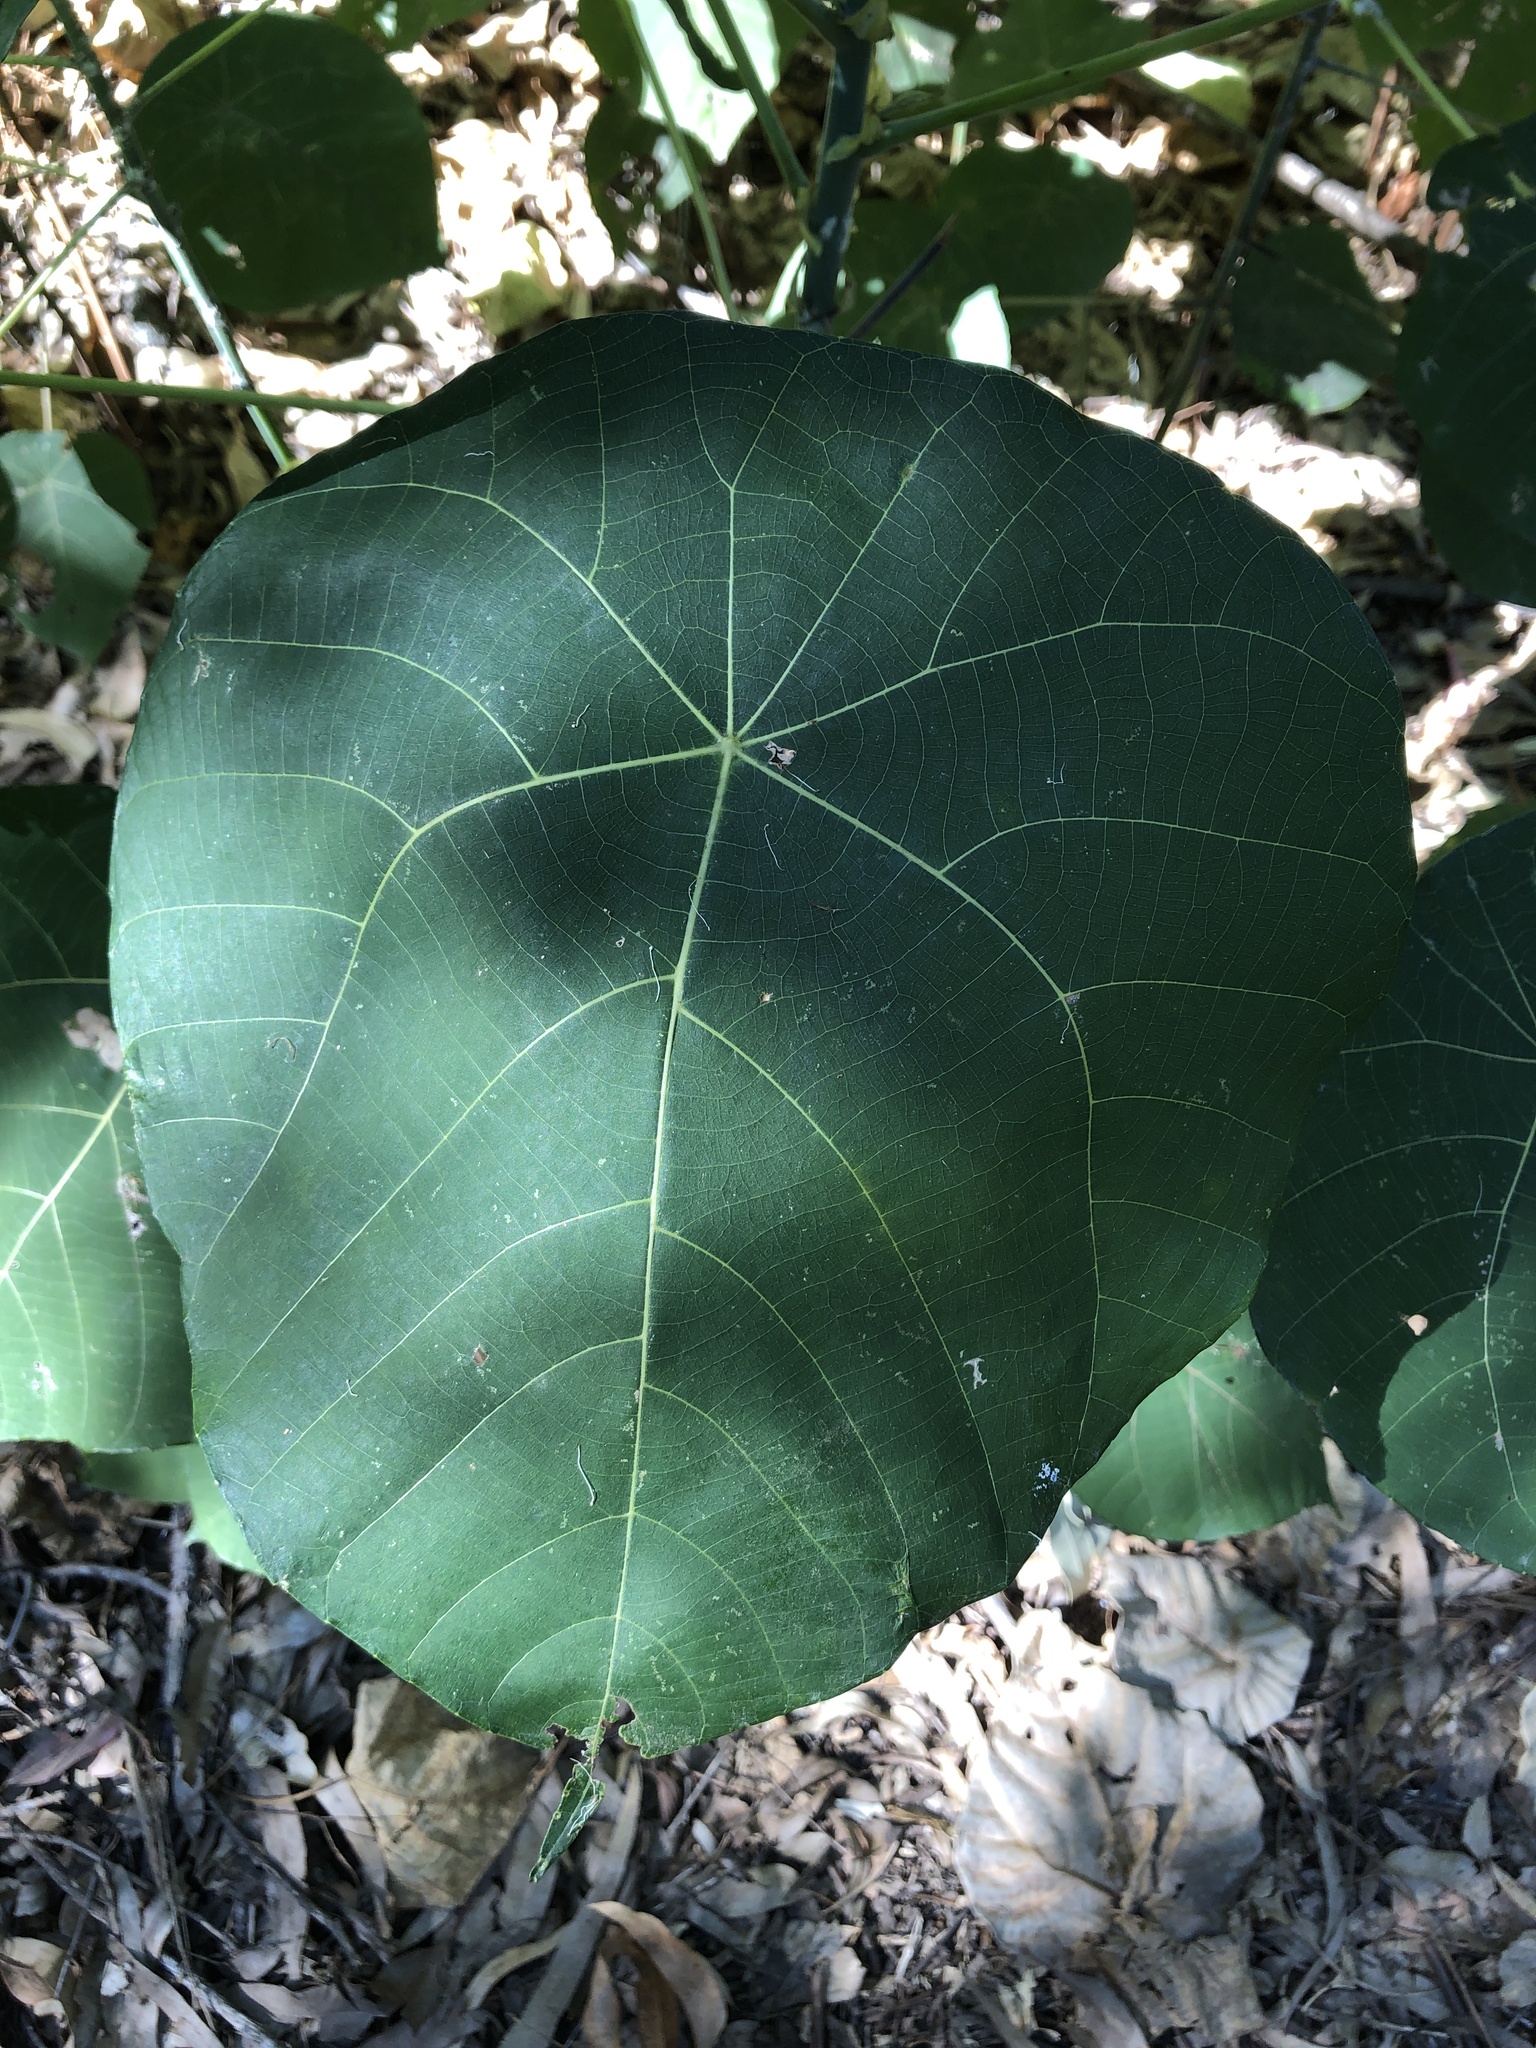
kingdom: Plantae
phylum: Tracheophyta
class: Magnoliopsida
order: Malpighiales
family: Euphorbiaceae
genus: Macaranga
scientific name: Macaranga tanarius
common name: Parasol leaf tree
